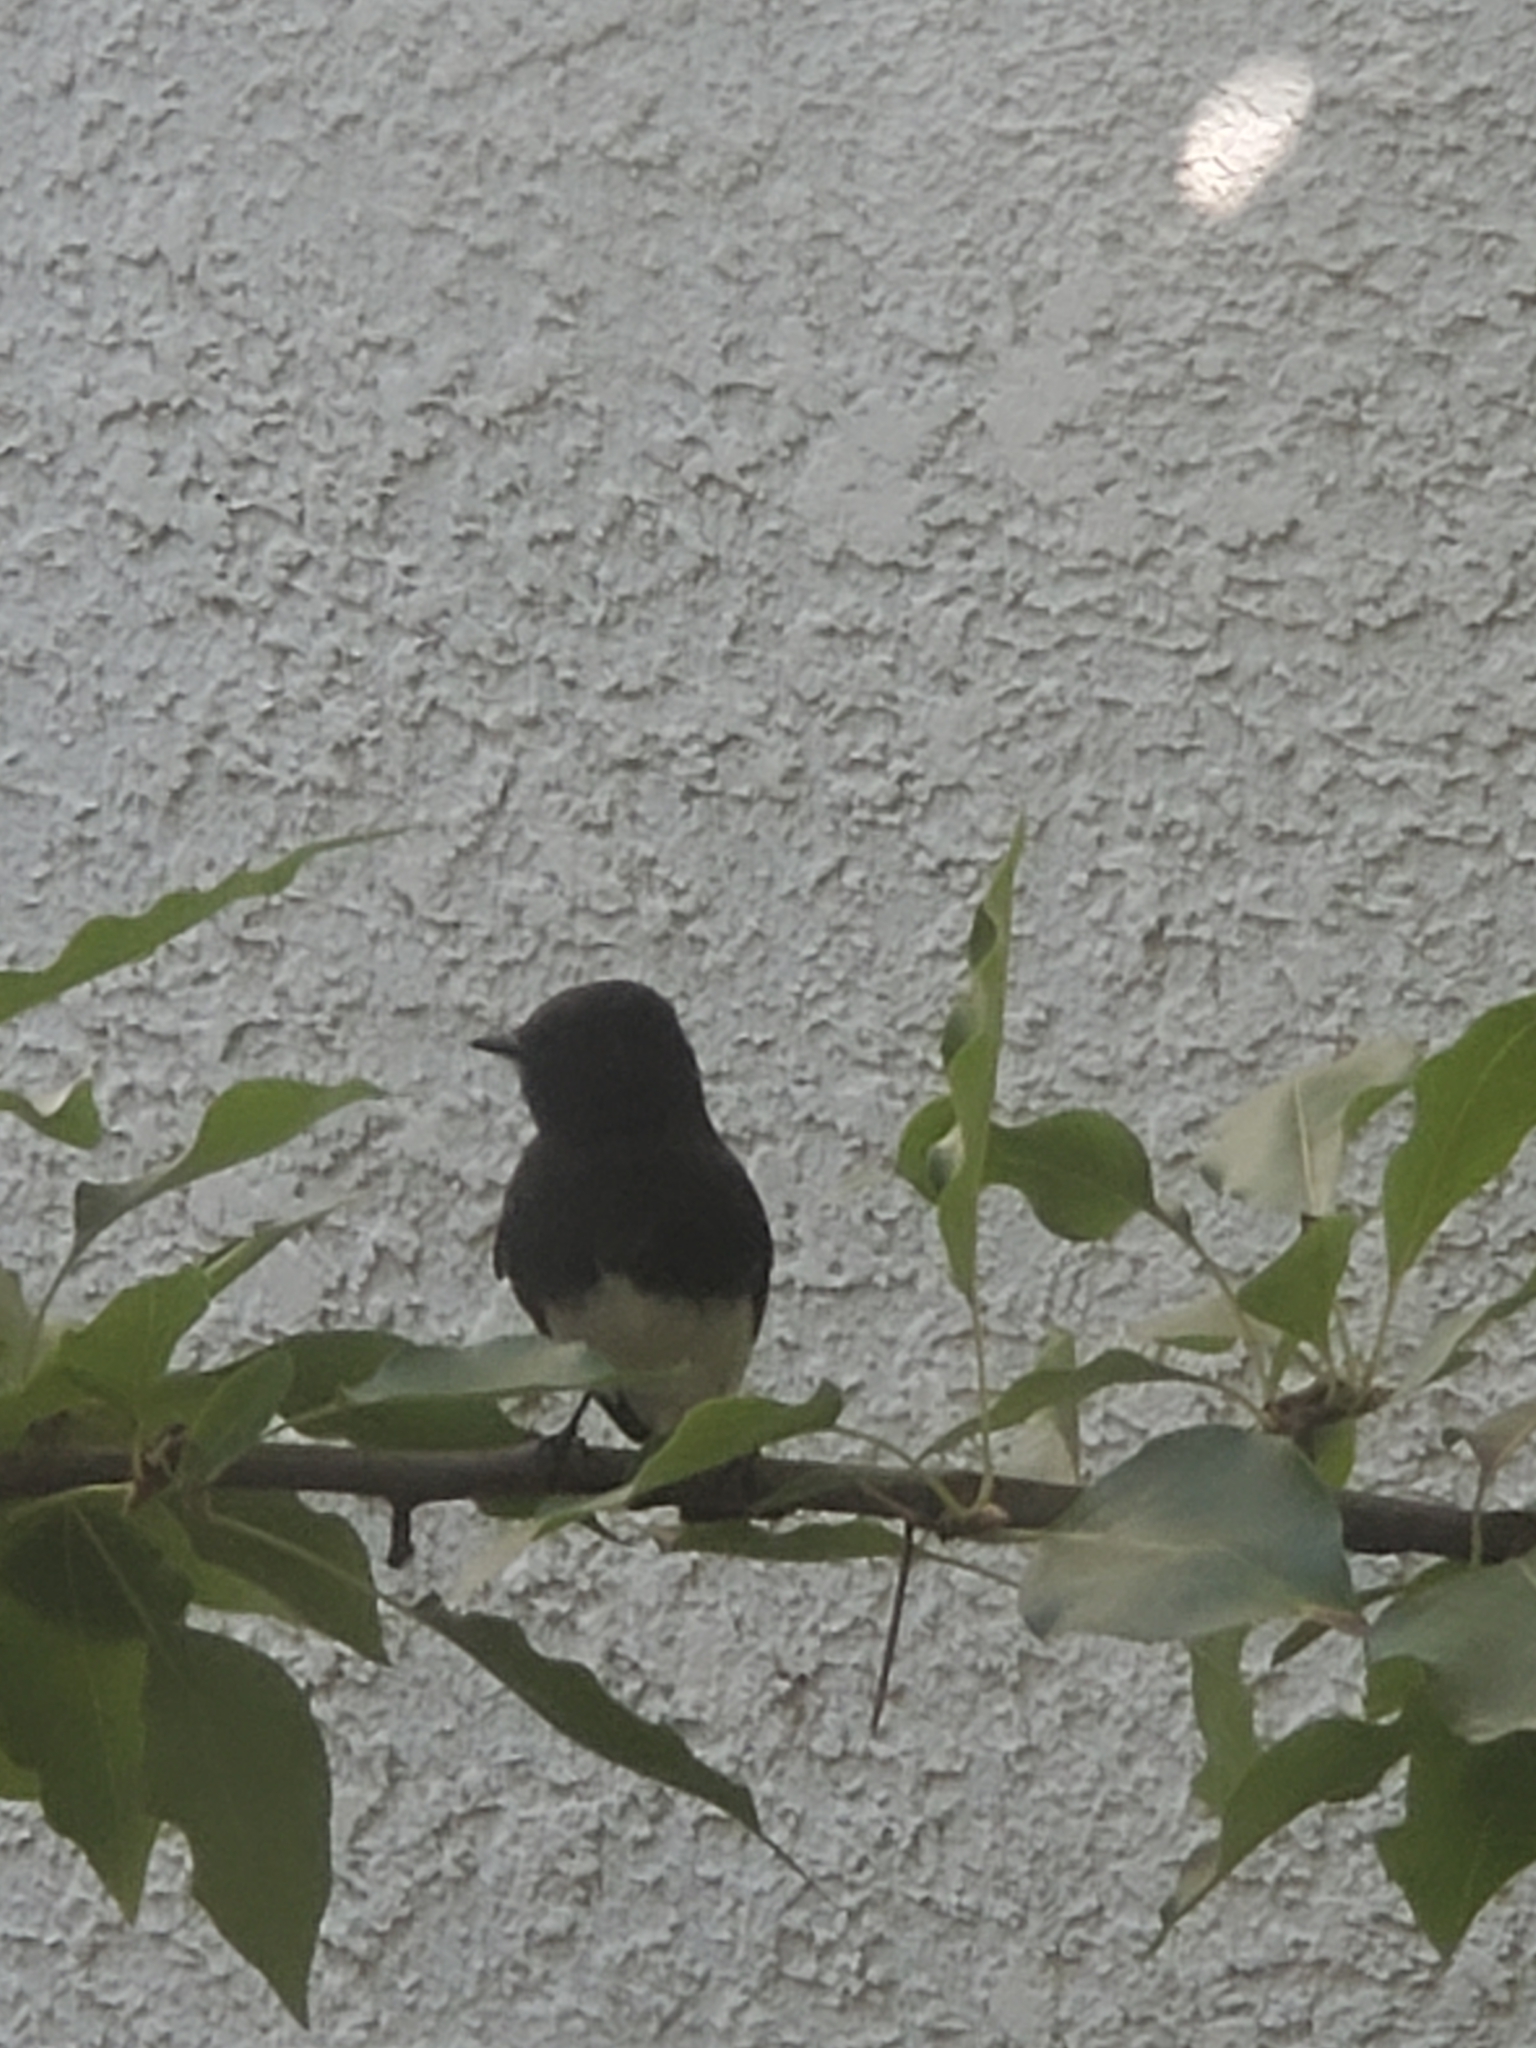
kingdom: Animalia
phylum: Chordata
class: Aves
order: Passeriformes
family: Tyrannidae
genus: Sayornis
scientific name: Sayornis nigricans
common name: Black phoebe
